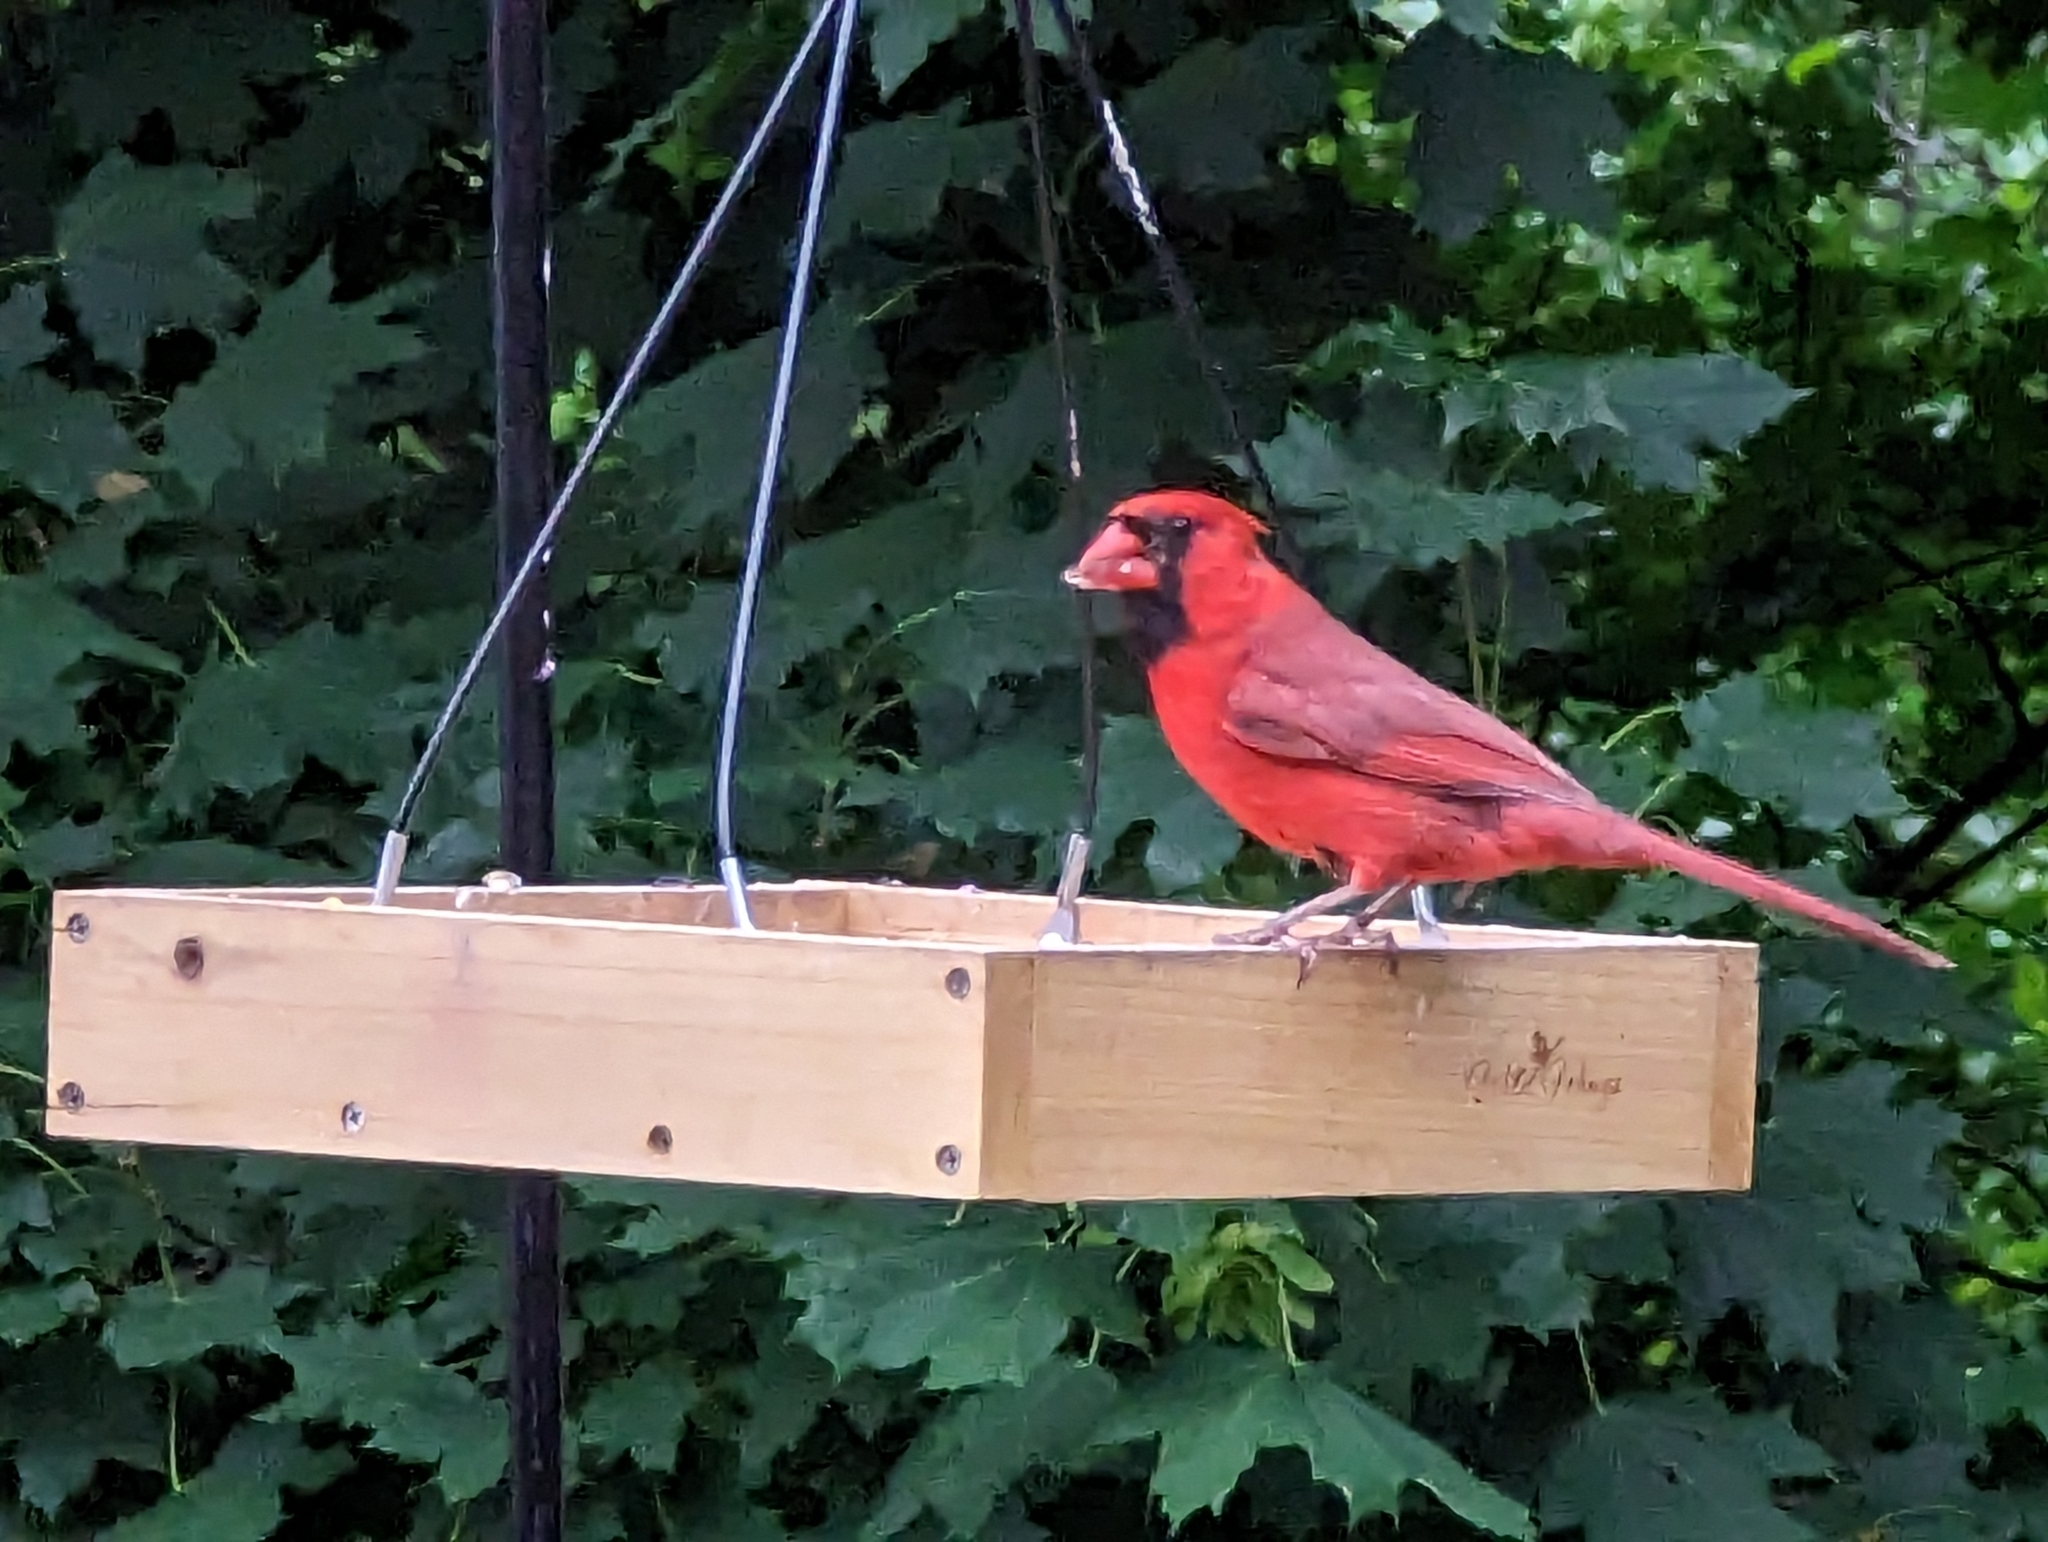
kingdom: Animalia
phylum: Chordata
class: Aves
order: Passeriformes
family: Cardinalidae
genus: Cardinalis
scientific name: Cardinalis cardinalis
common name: Northern cardinal
